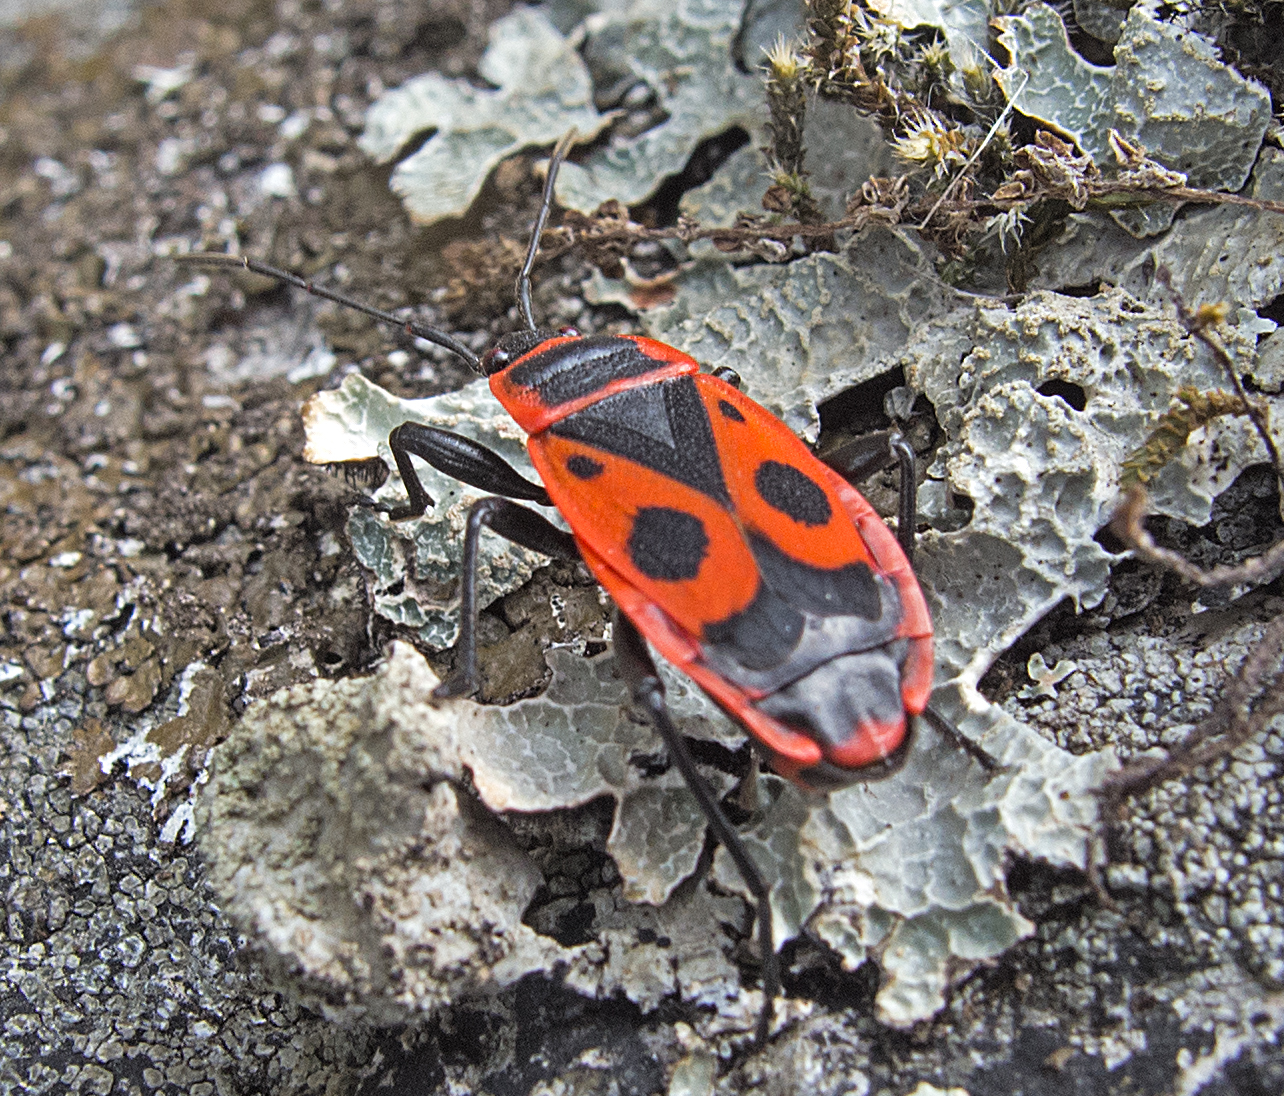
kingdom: Animalia
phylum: Arthropoda
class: Insecta
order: Hemiptera
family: Pyrrhocoridae
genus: Pyrrhocoris
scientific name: Pyrrhocoris apterus
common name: Firebug
